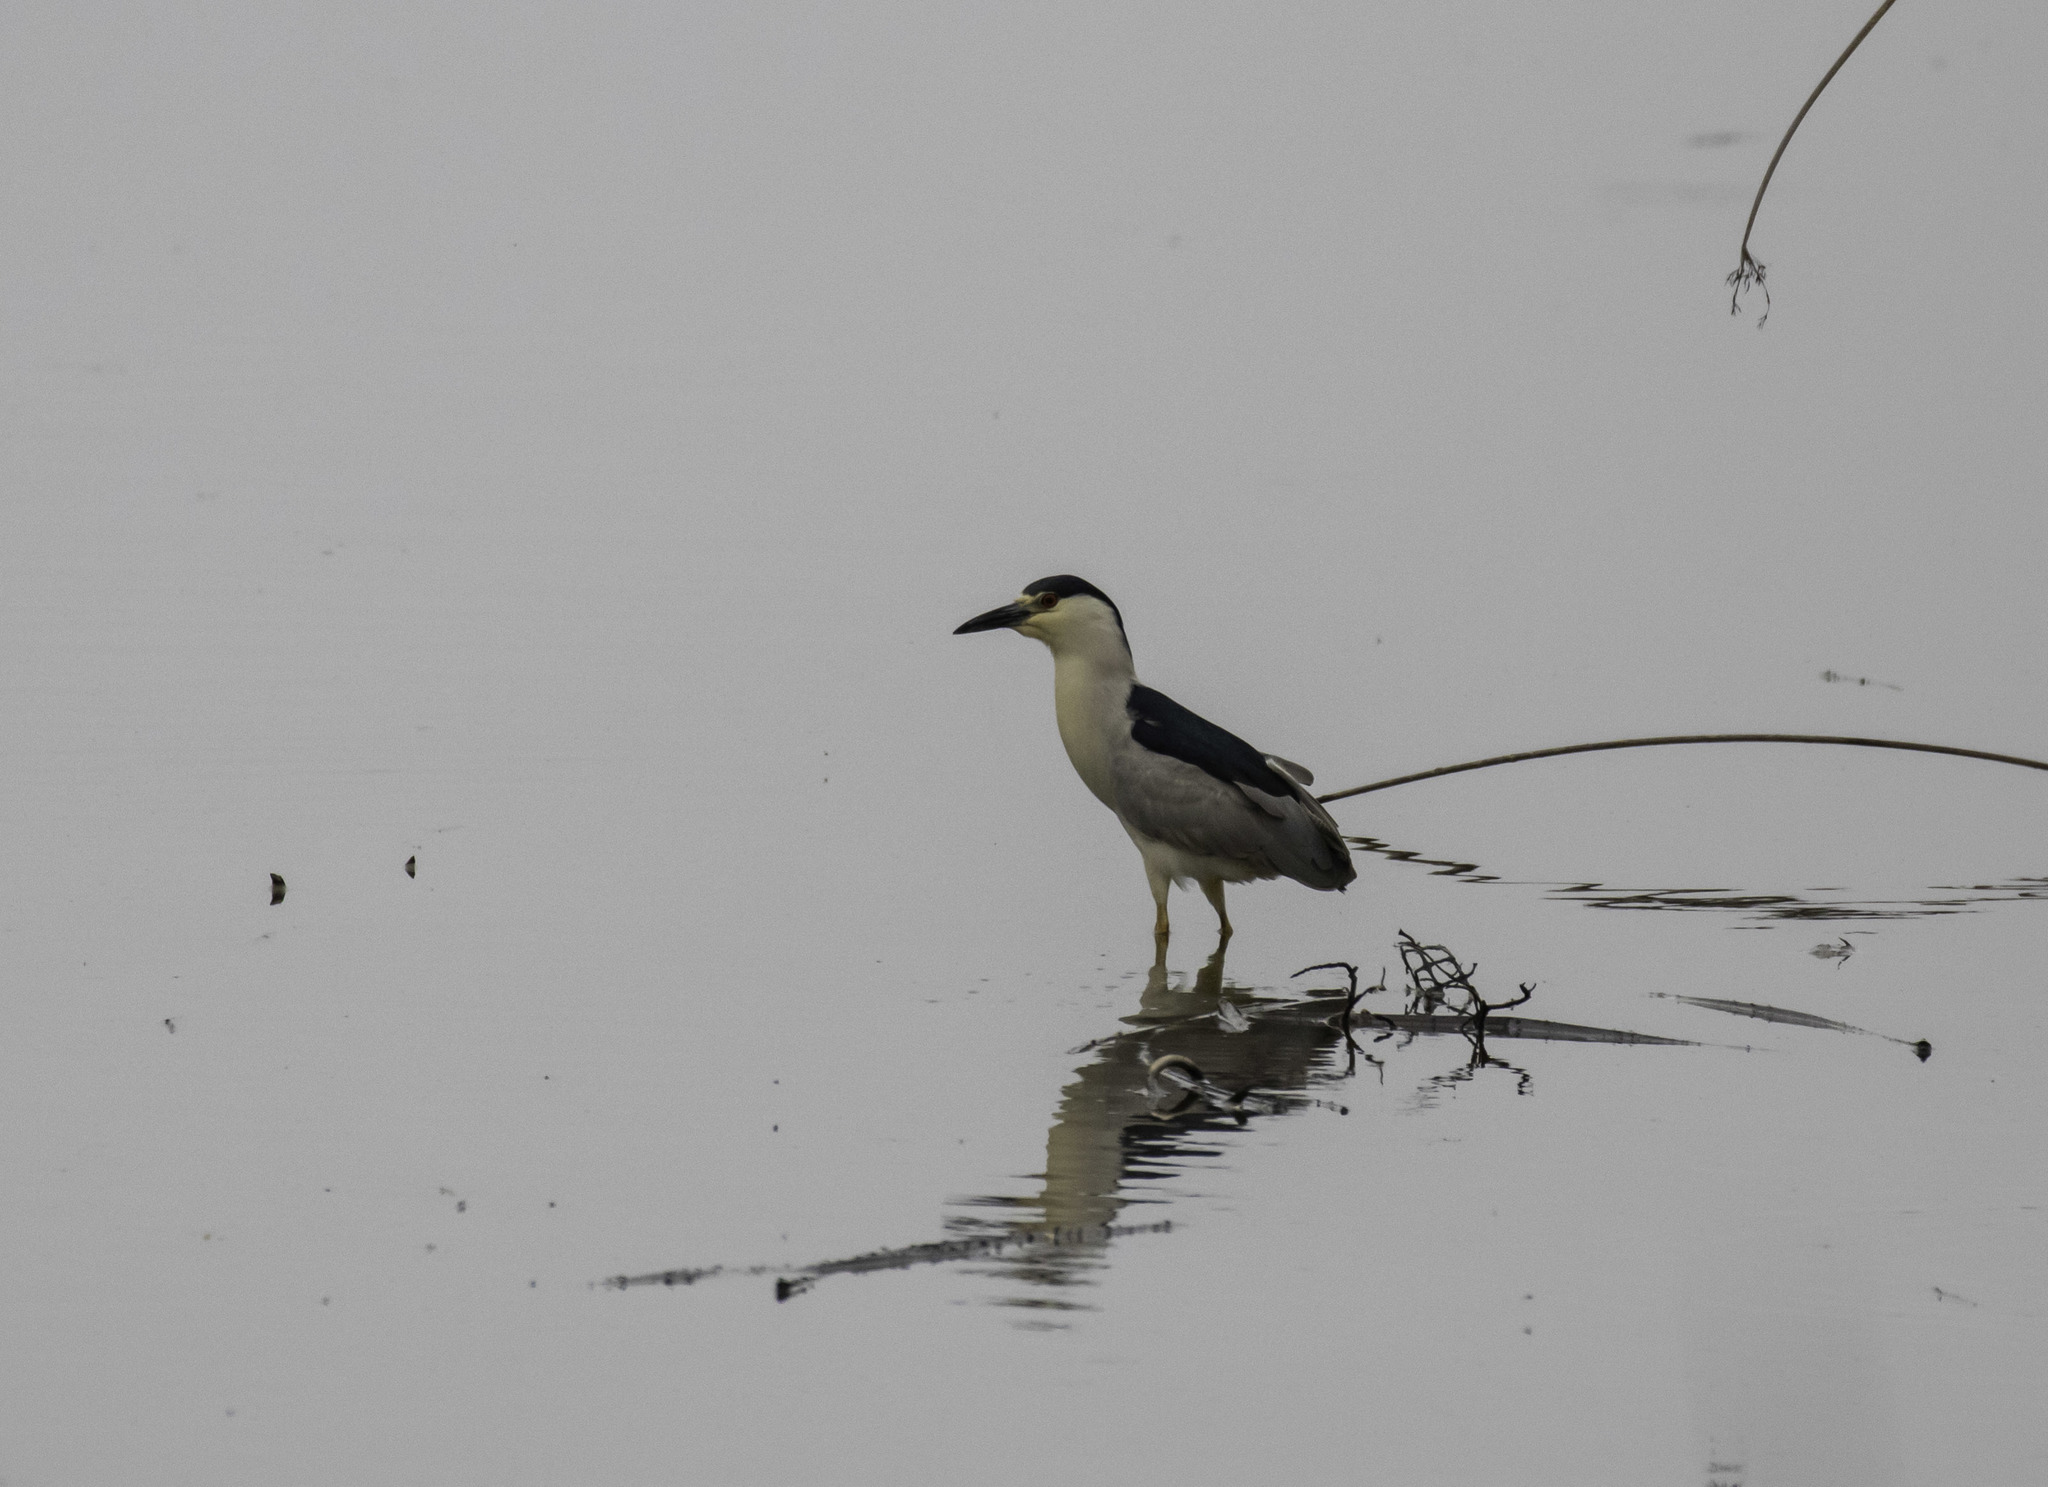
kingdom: Animalia
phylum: Chordata
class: Aves
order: Pelecaniformes
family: Ardeidae
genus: Nycticorax
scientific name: Nycticorax nycticorax
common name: Black-crowned night heron
